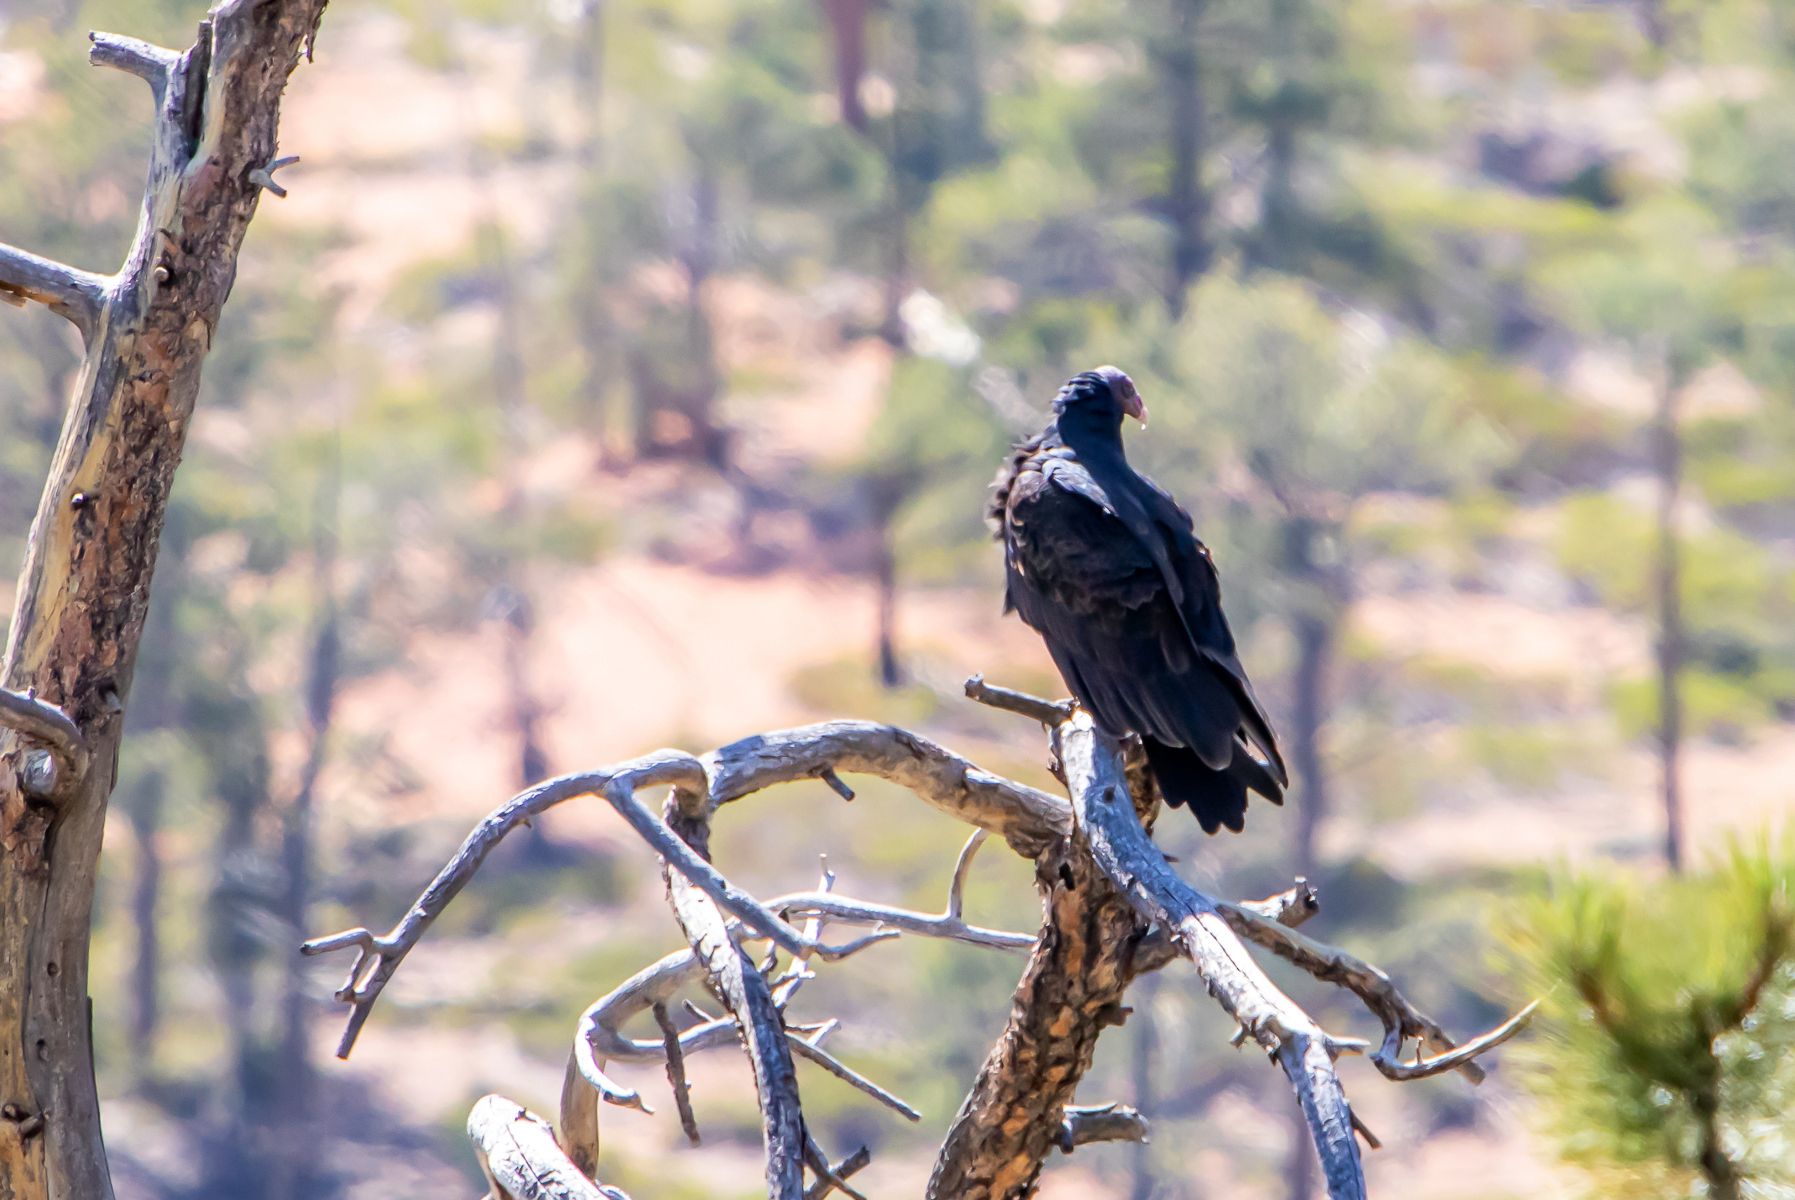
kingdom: Animalia
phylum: Chordata
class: Aves
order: Accipitriformes
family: Cathartidae
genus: Cathartes
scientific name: Cathartes aura
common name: Turkey vulture
